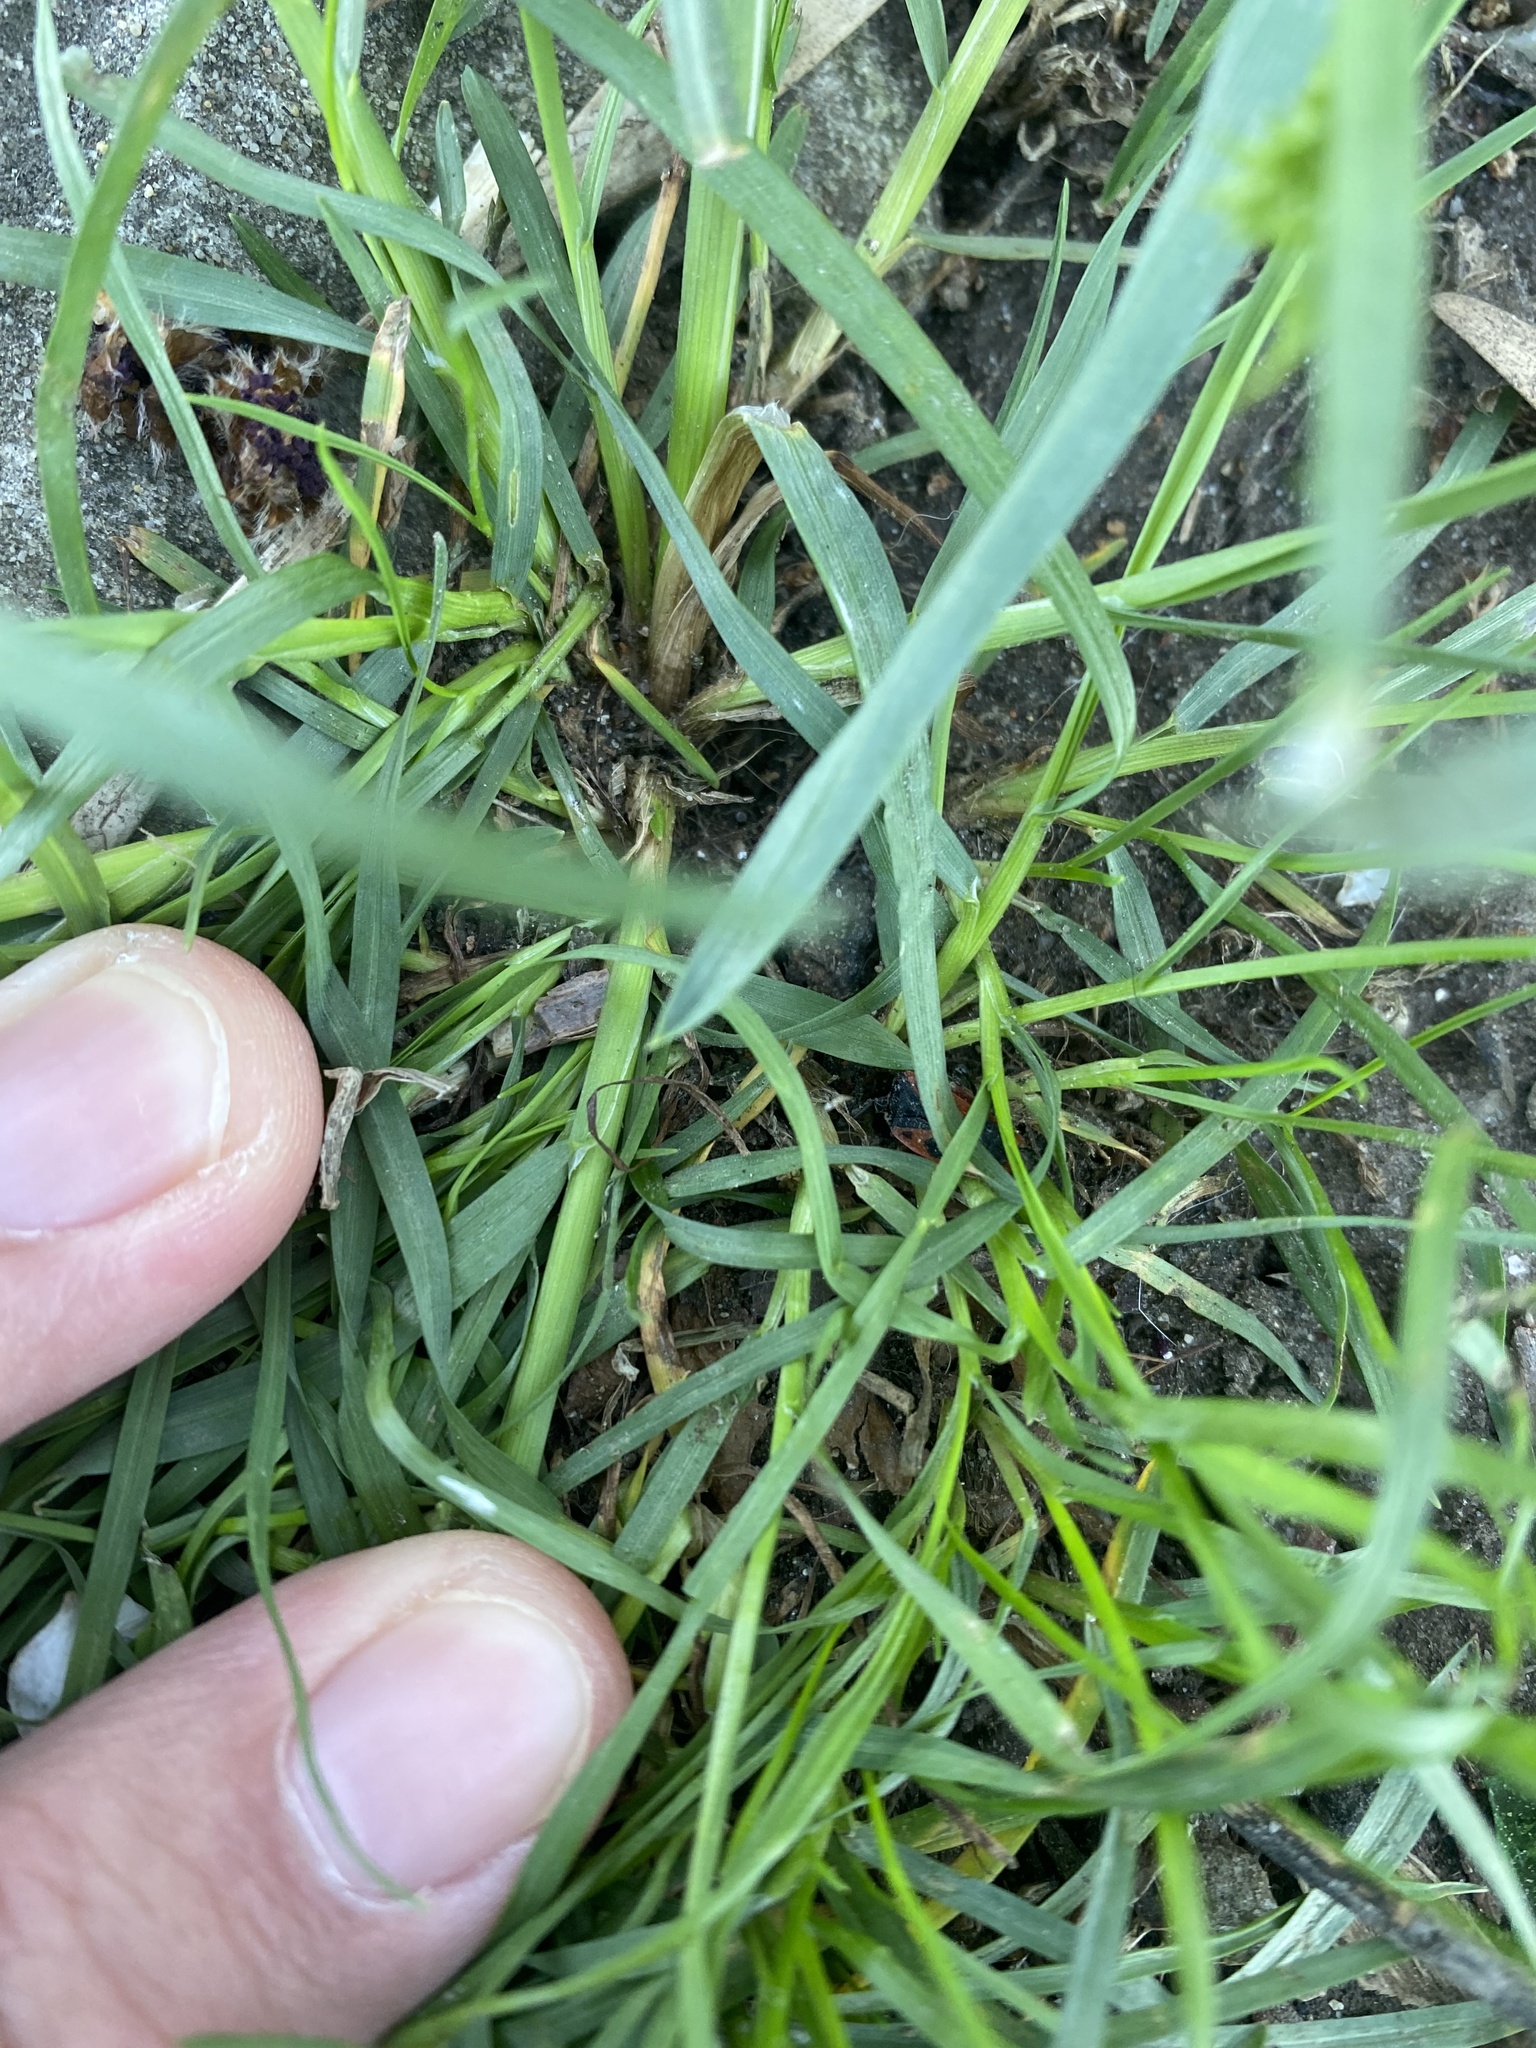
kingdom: Plantae
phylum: Tracheophyta
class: Liliopsida
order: Poales
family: Poaceae
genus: Poa
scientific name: Poa bulbosa
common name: Bulbous bluegrass
